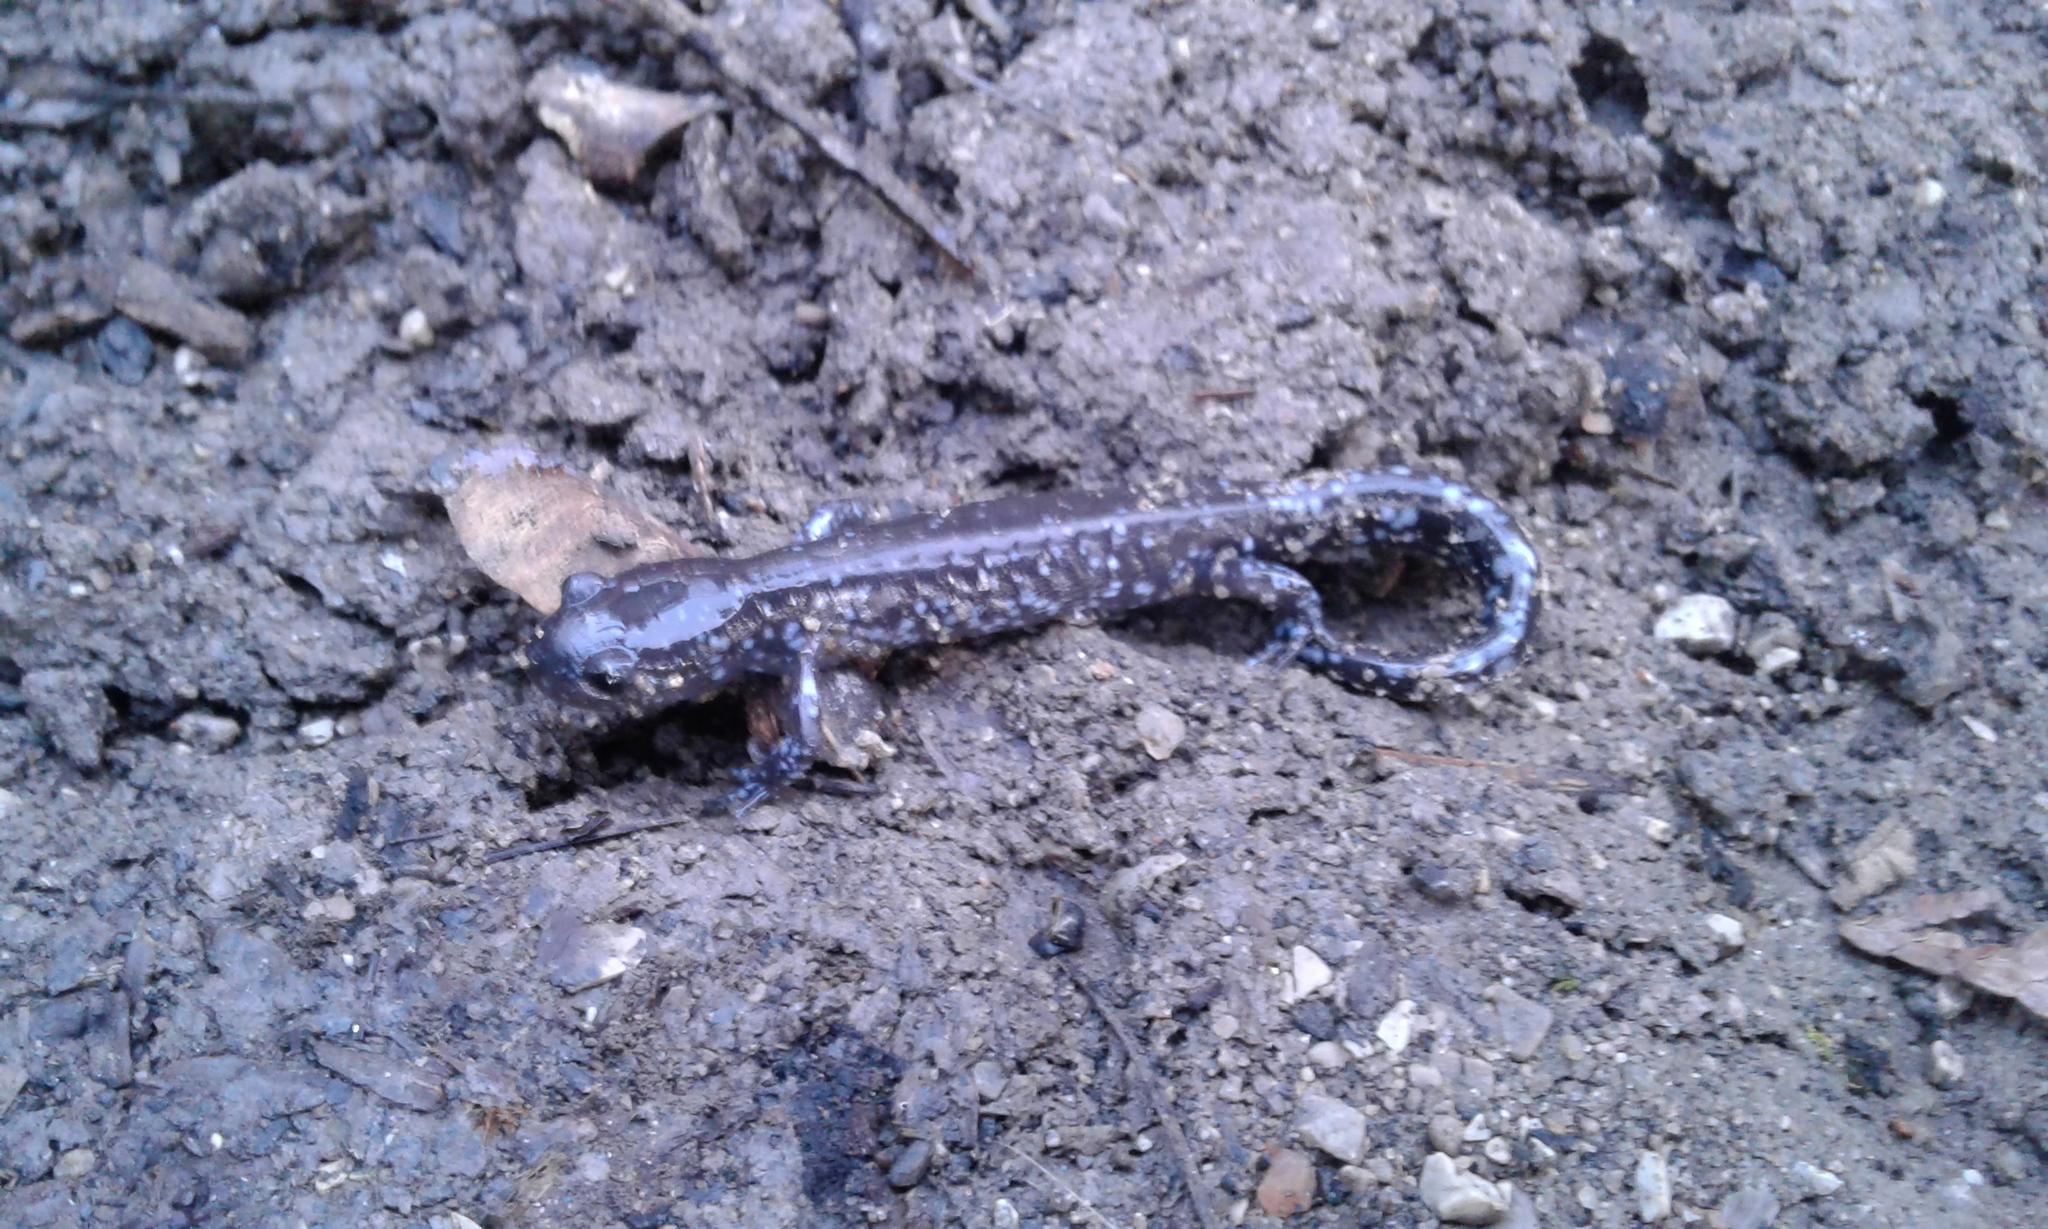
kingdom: Animalia
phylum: Chordata
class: Amphibia
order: Caudata
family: Ambystomatidae
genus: Ambystoma
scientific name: Ambystoma laterale
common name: Blue-spotted salamander
